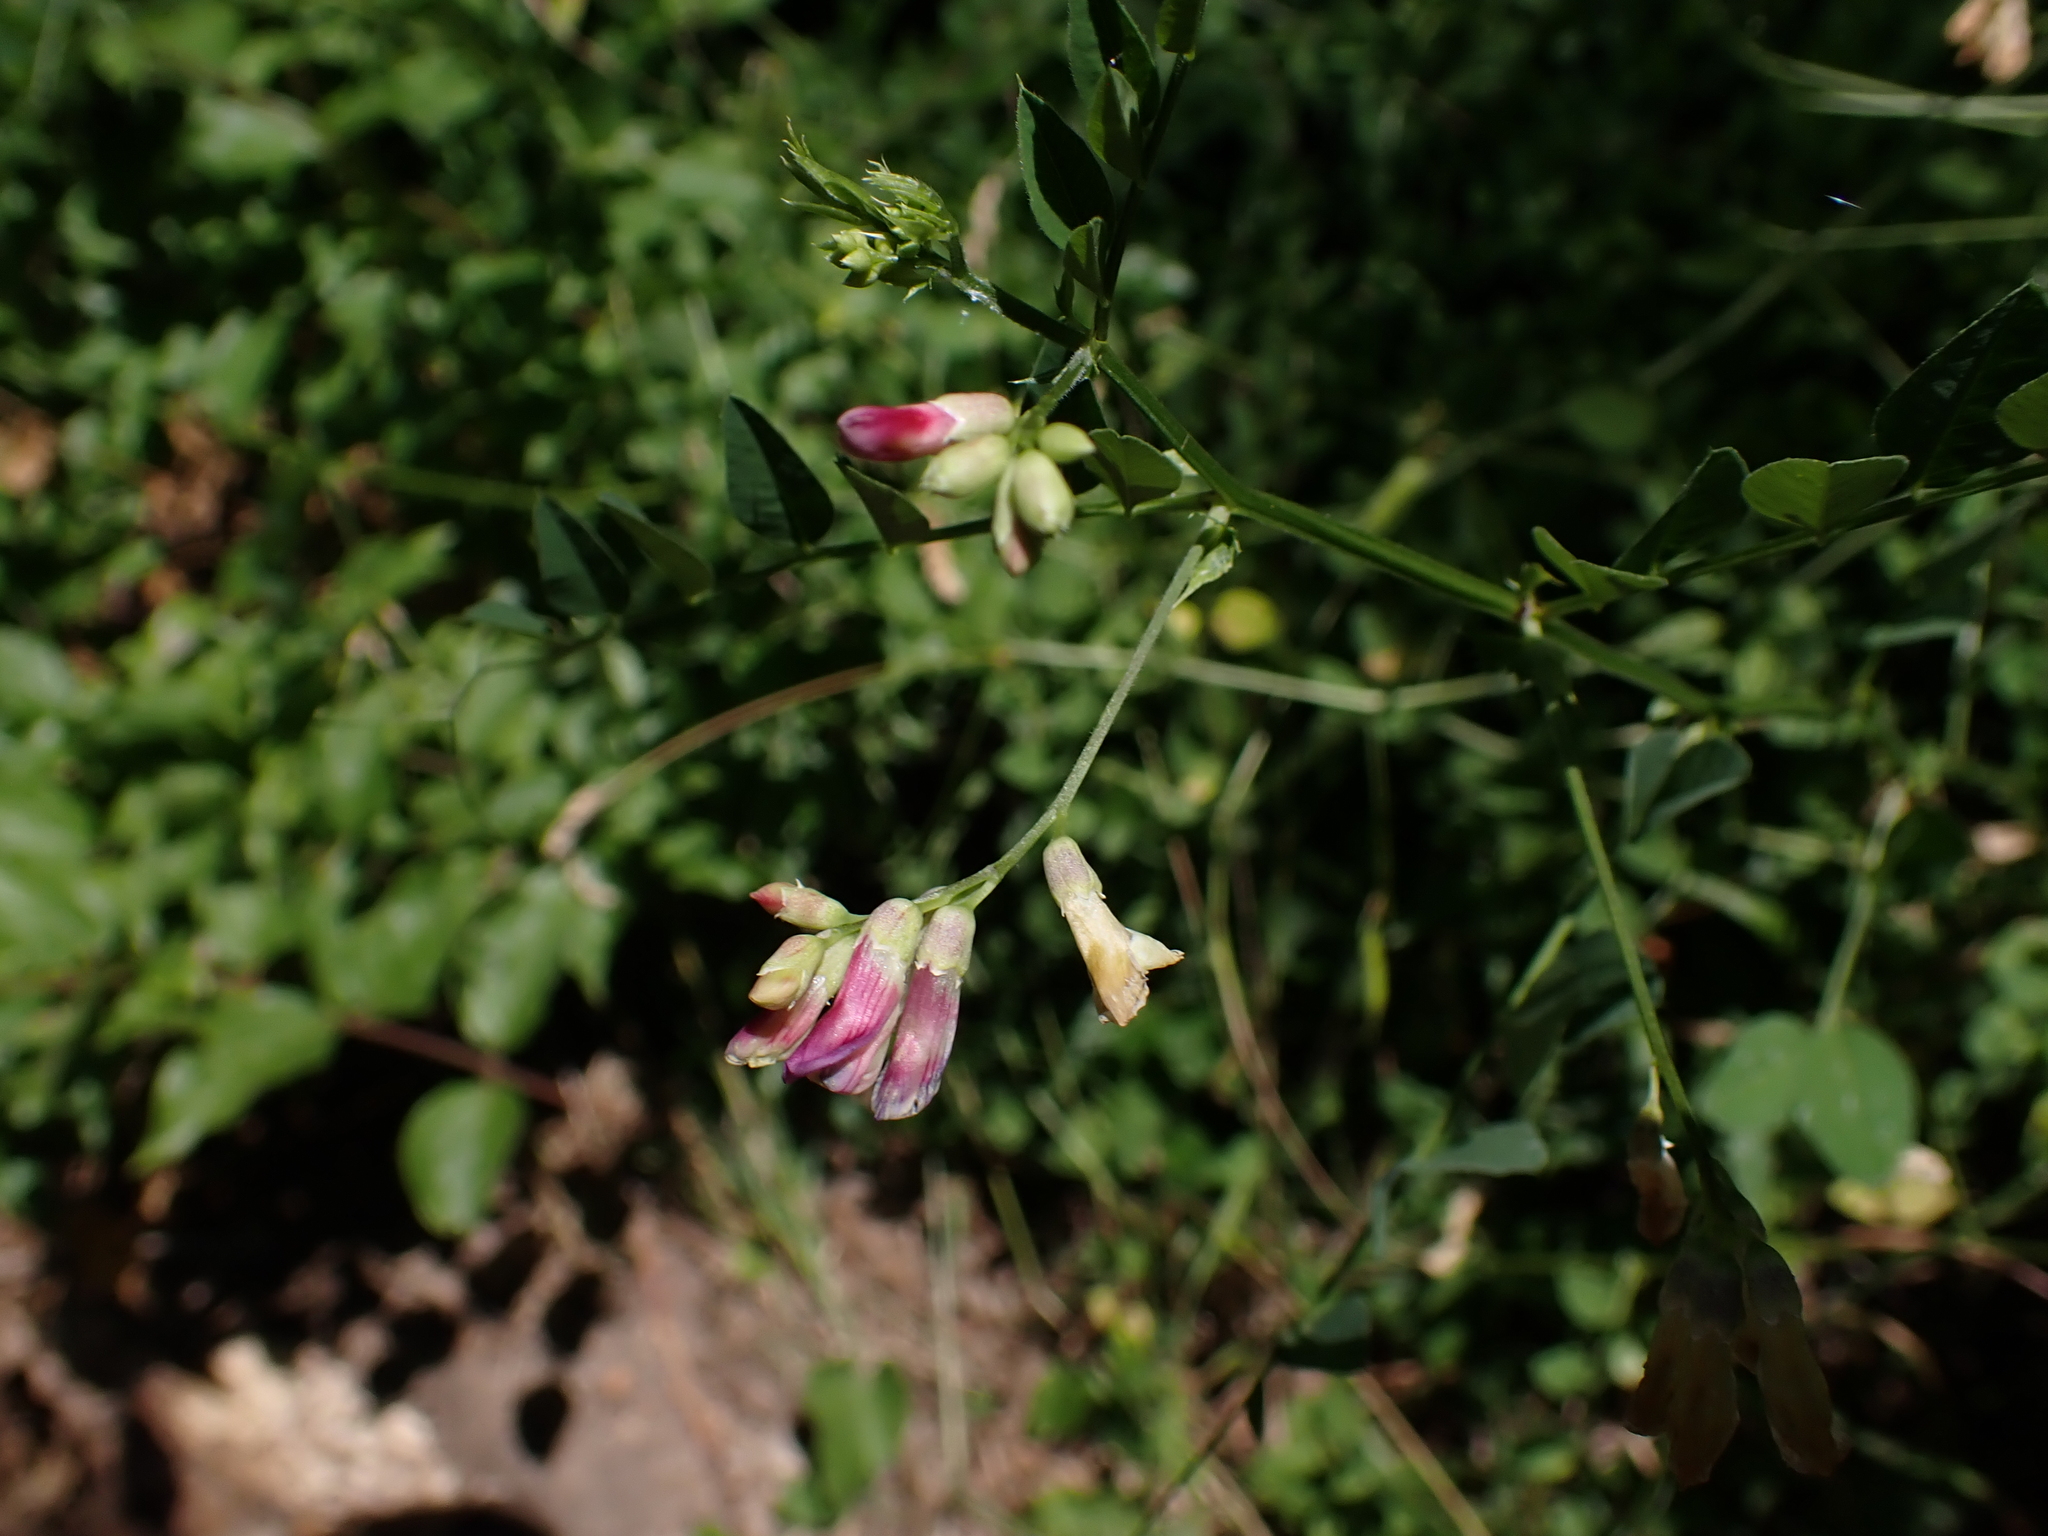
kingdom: Plantae
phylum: Tracheophyta
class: Magnoliopsida
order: Fabales
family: Fabaceae
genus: Vicia
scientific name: Vicia dumetorum
